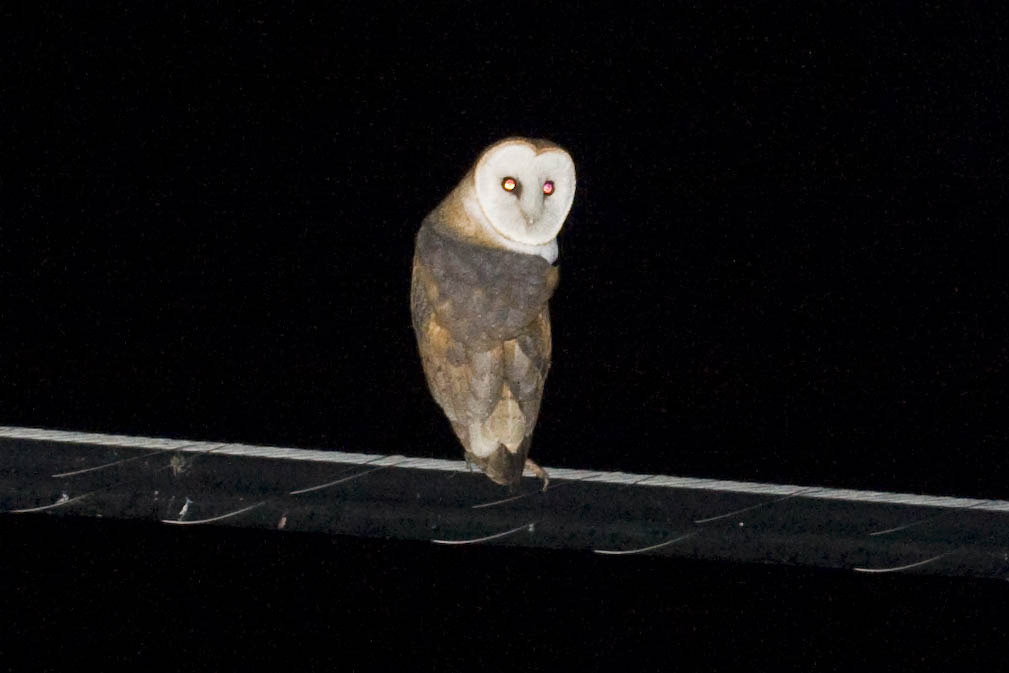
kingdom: Animalia
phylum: Chordata
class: Aves
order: Strigiformes
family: Tytonidae
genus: Tyto
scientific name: Tyto alba
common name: Barn owl
